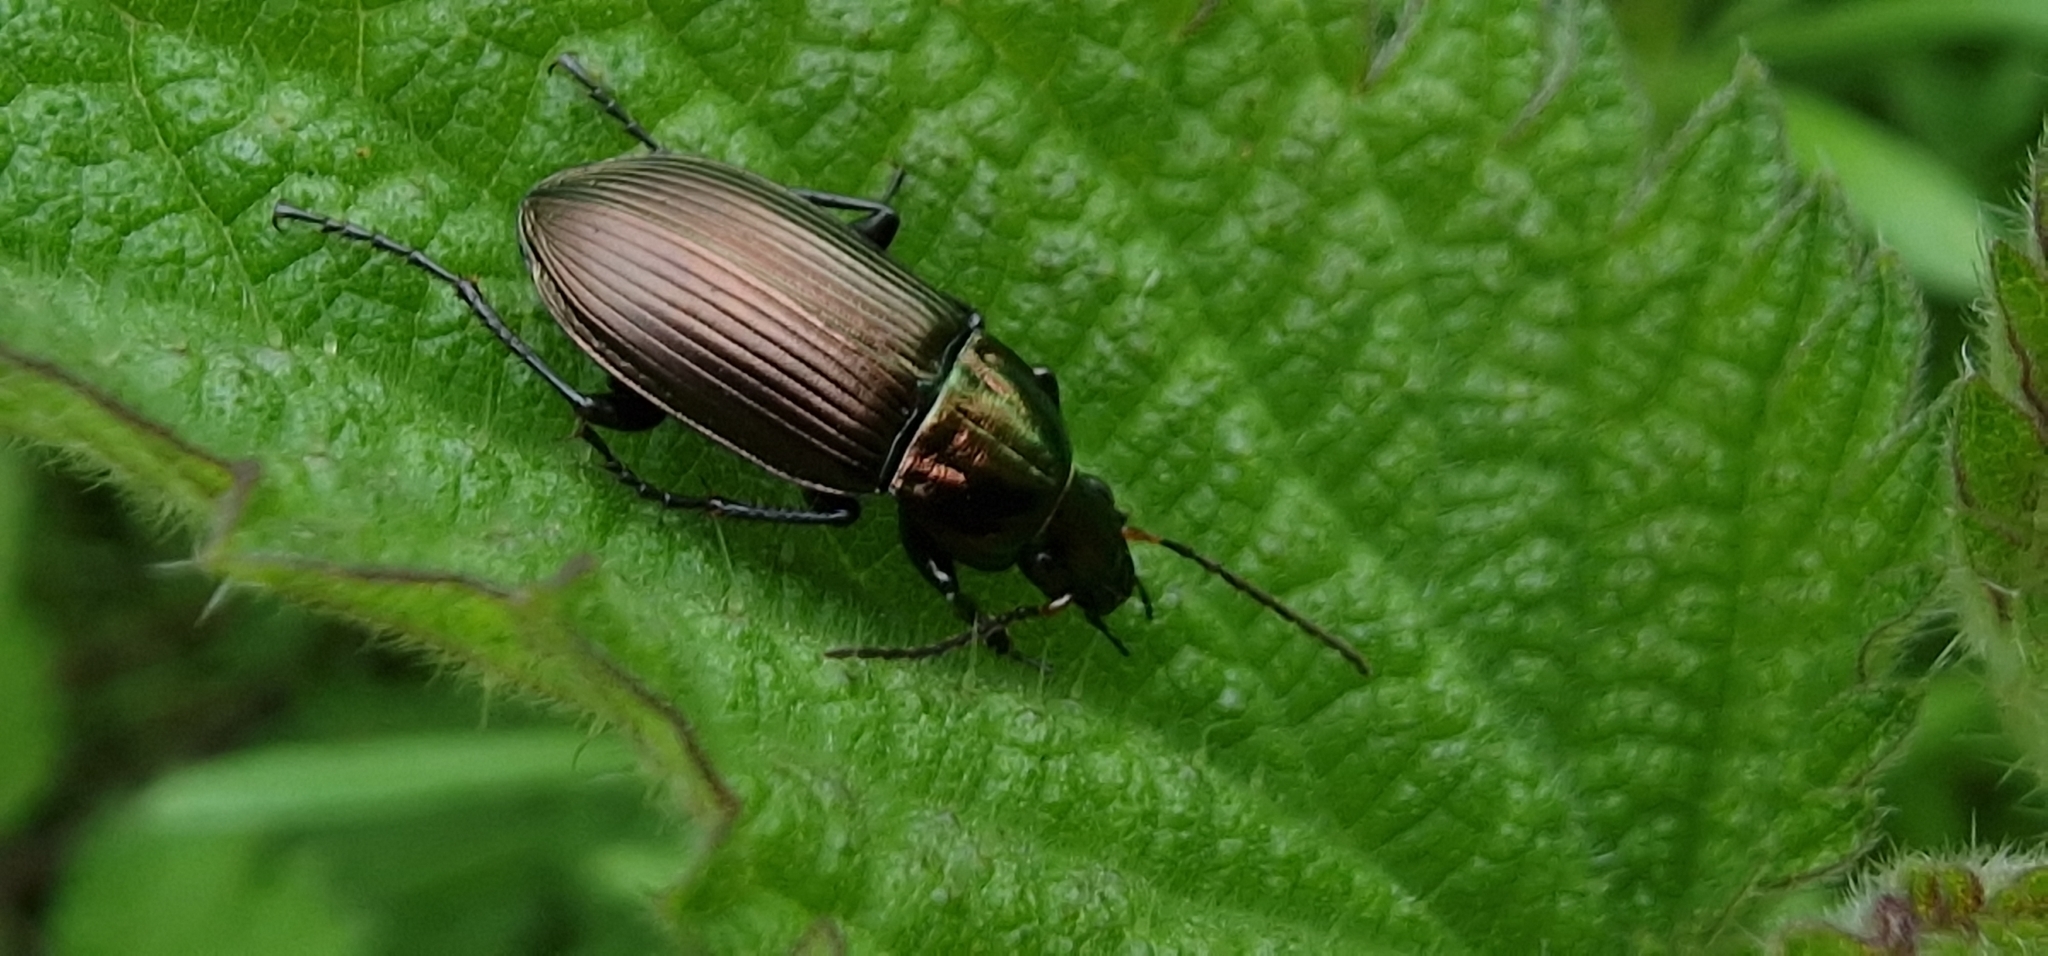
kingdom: Animalia
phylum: Arthropoda
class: Insecta
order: Coleoptera
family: Carabidae
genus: Poecilus
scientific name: Poecilus cupreus
